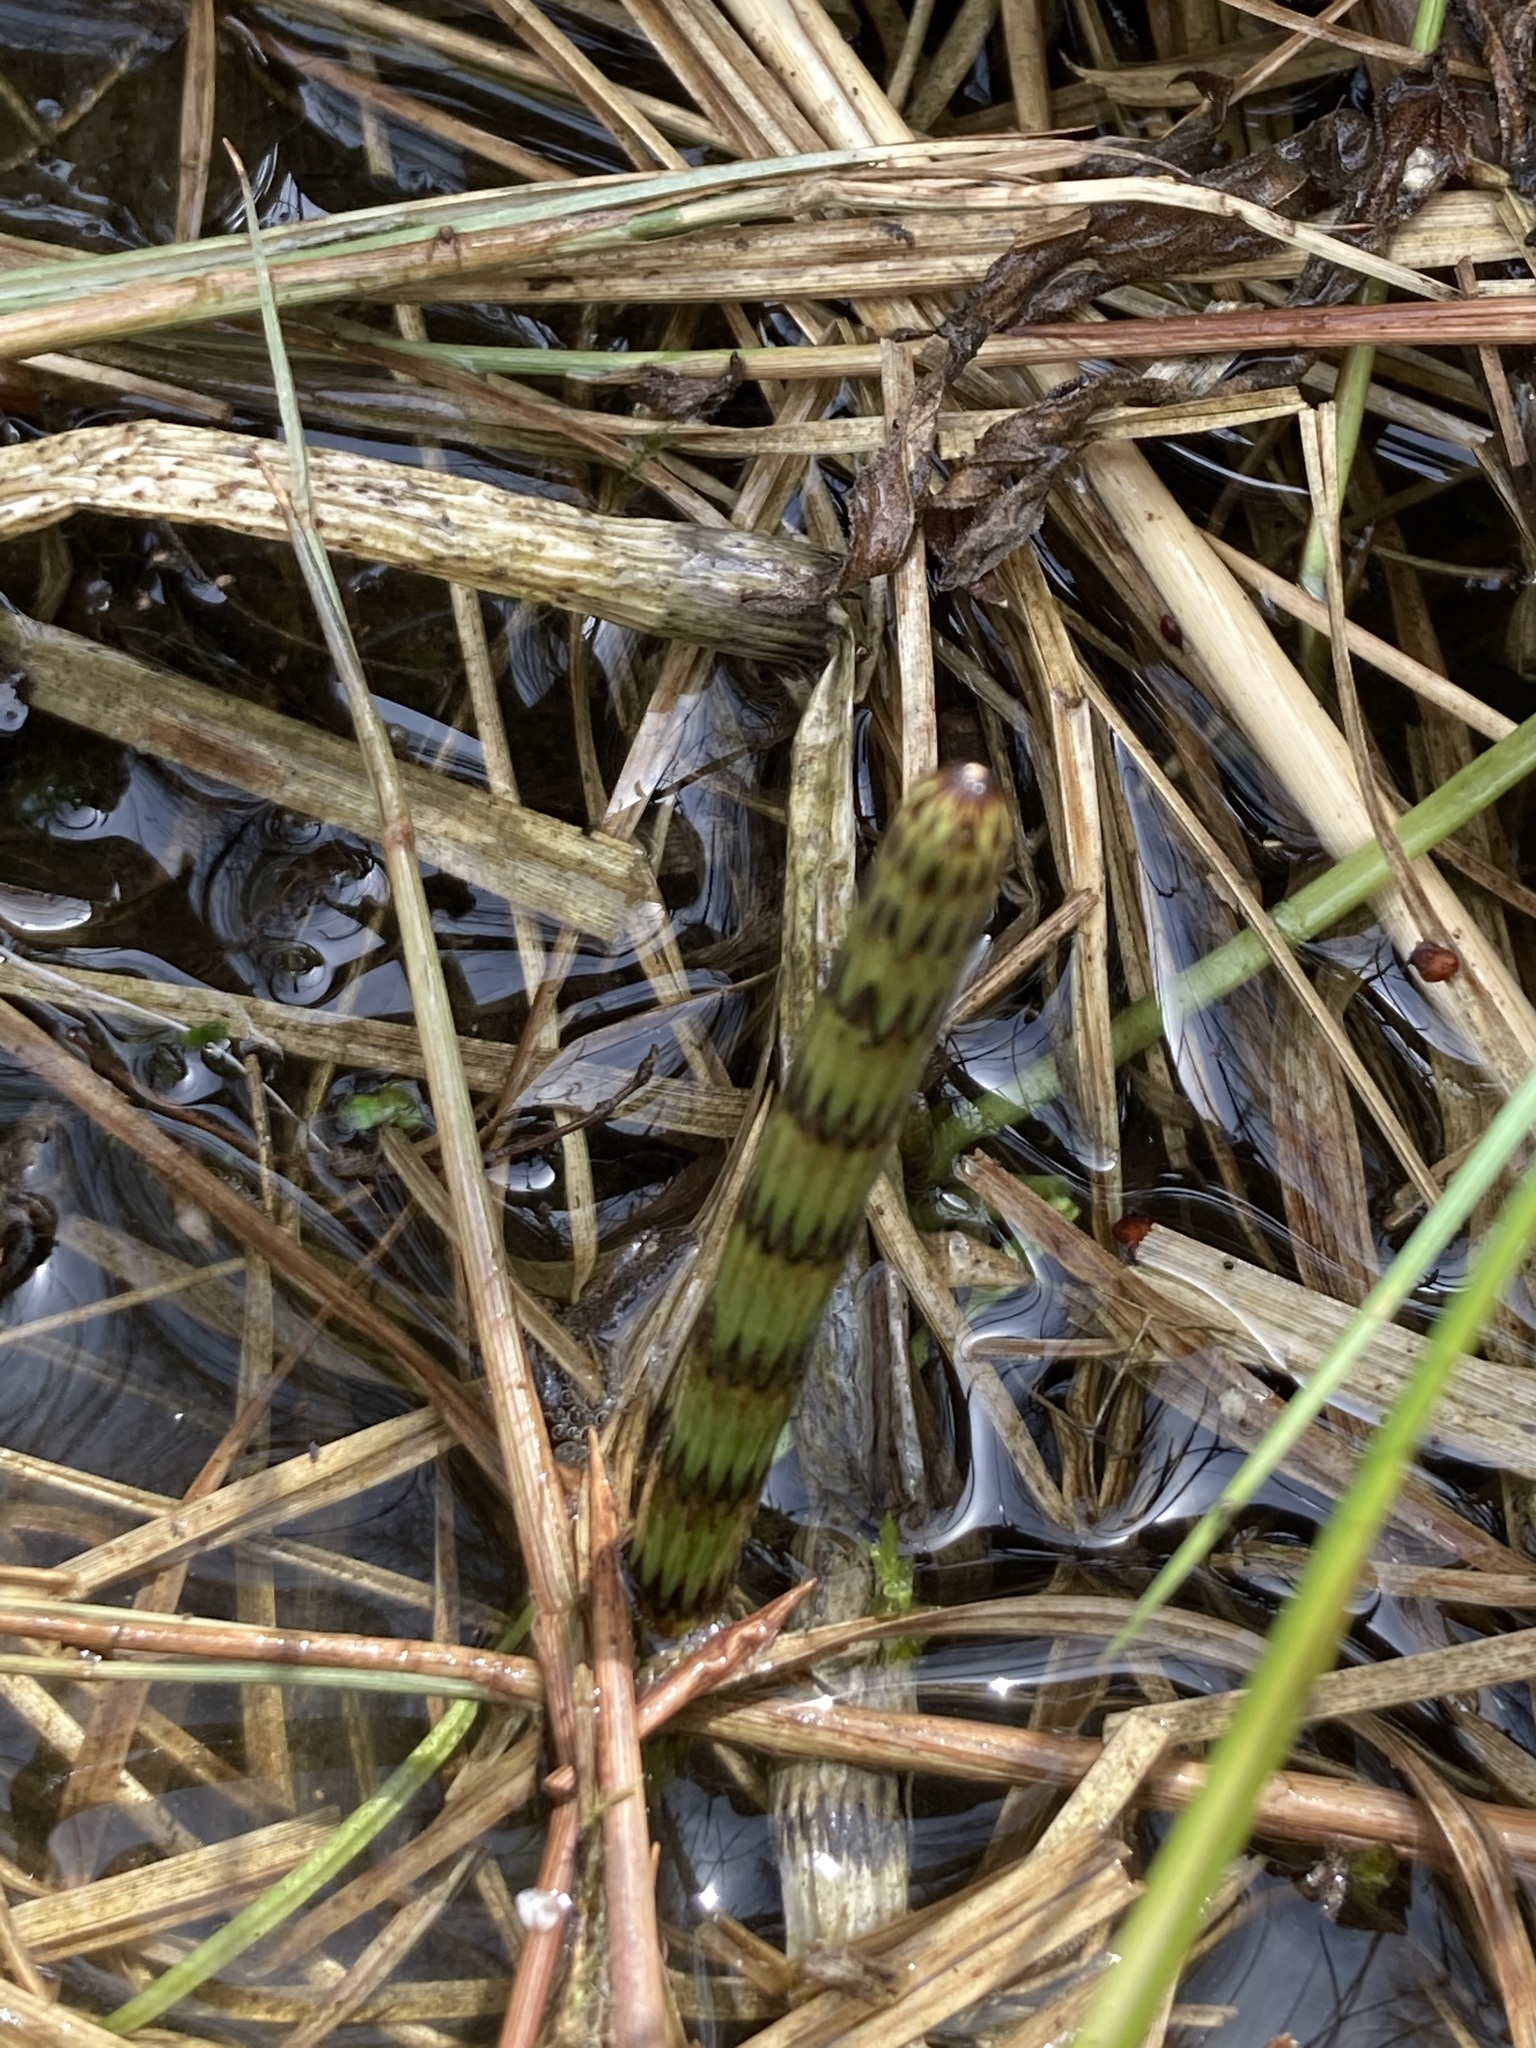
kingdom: Plantae
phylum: Tracheophyta
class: Polypodiopsida
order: Equisetales
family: Equisetaceae
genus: Equisetum
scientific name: Equisetum fluviatile
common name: Water horsetail
